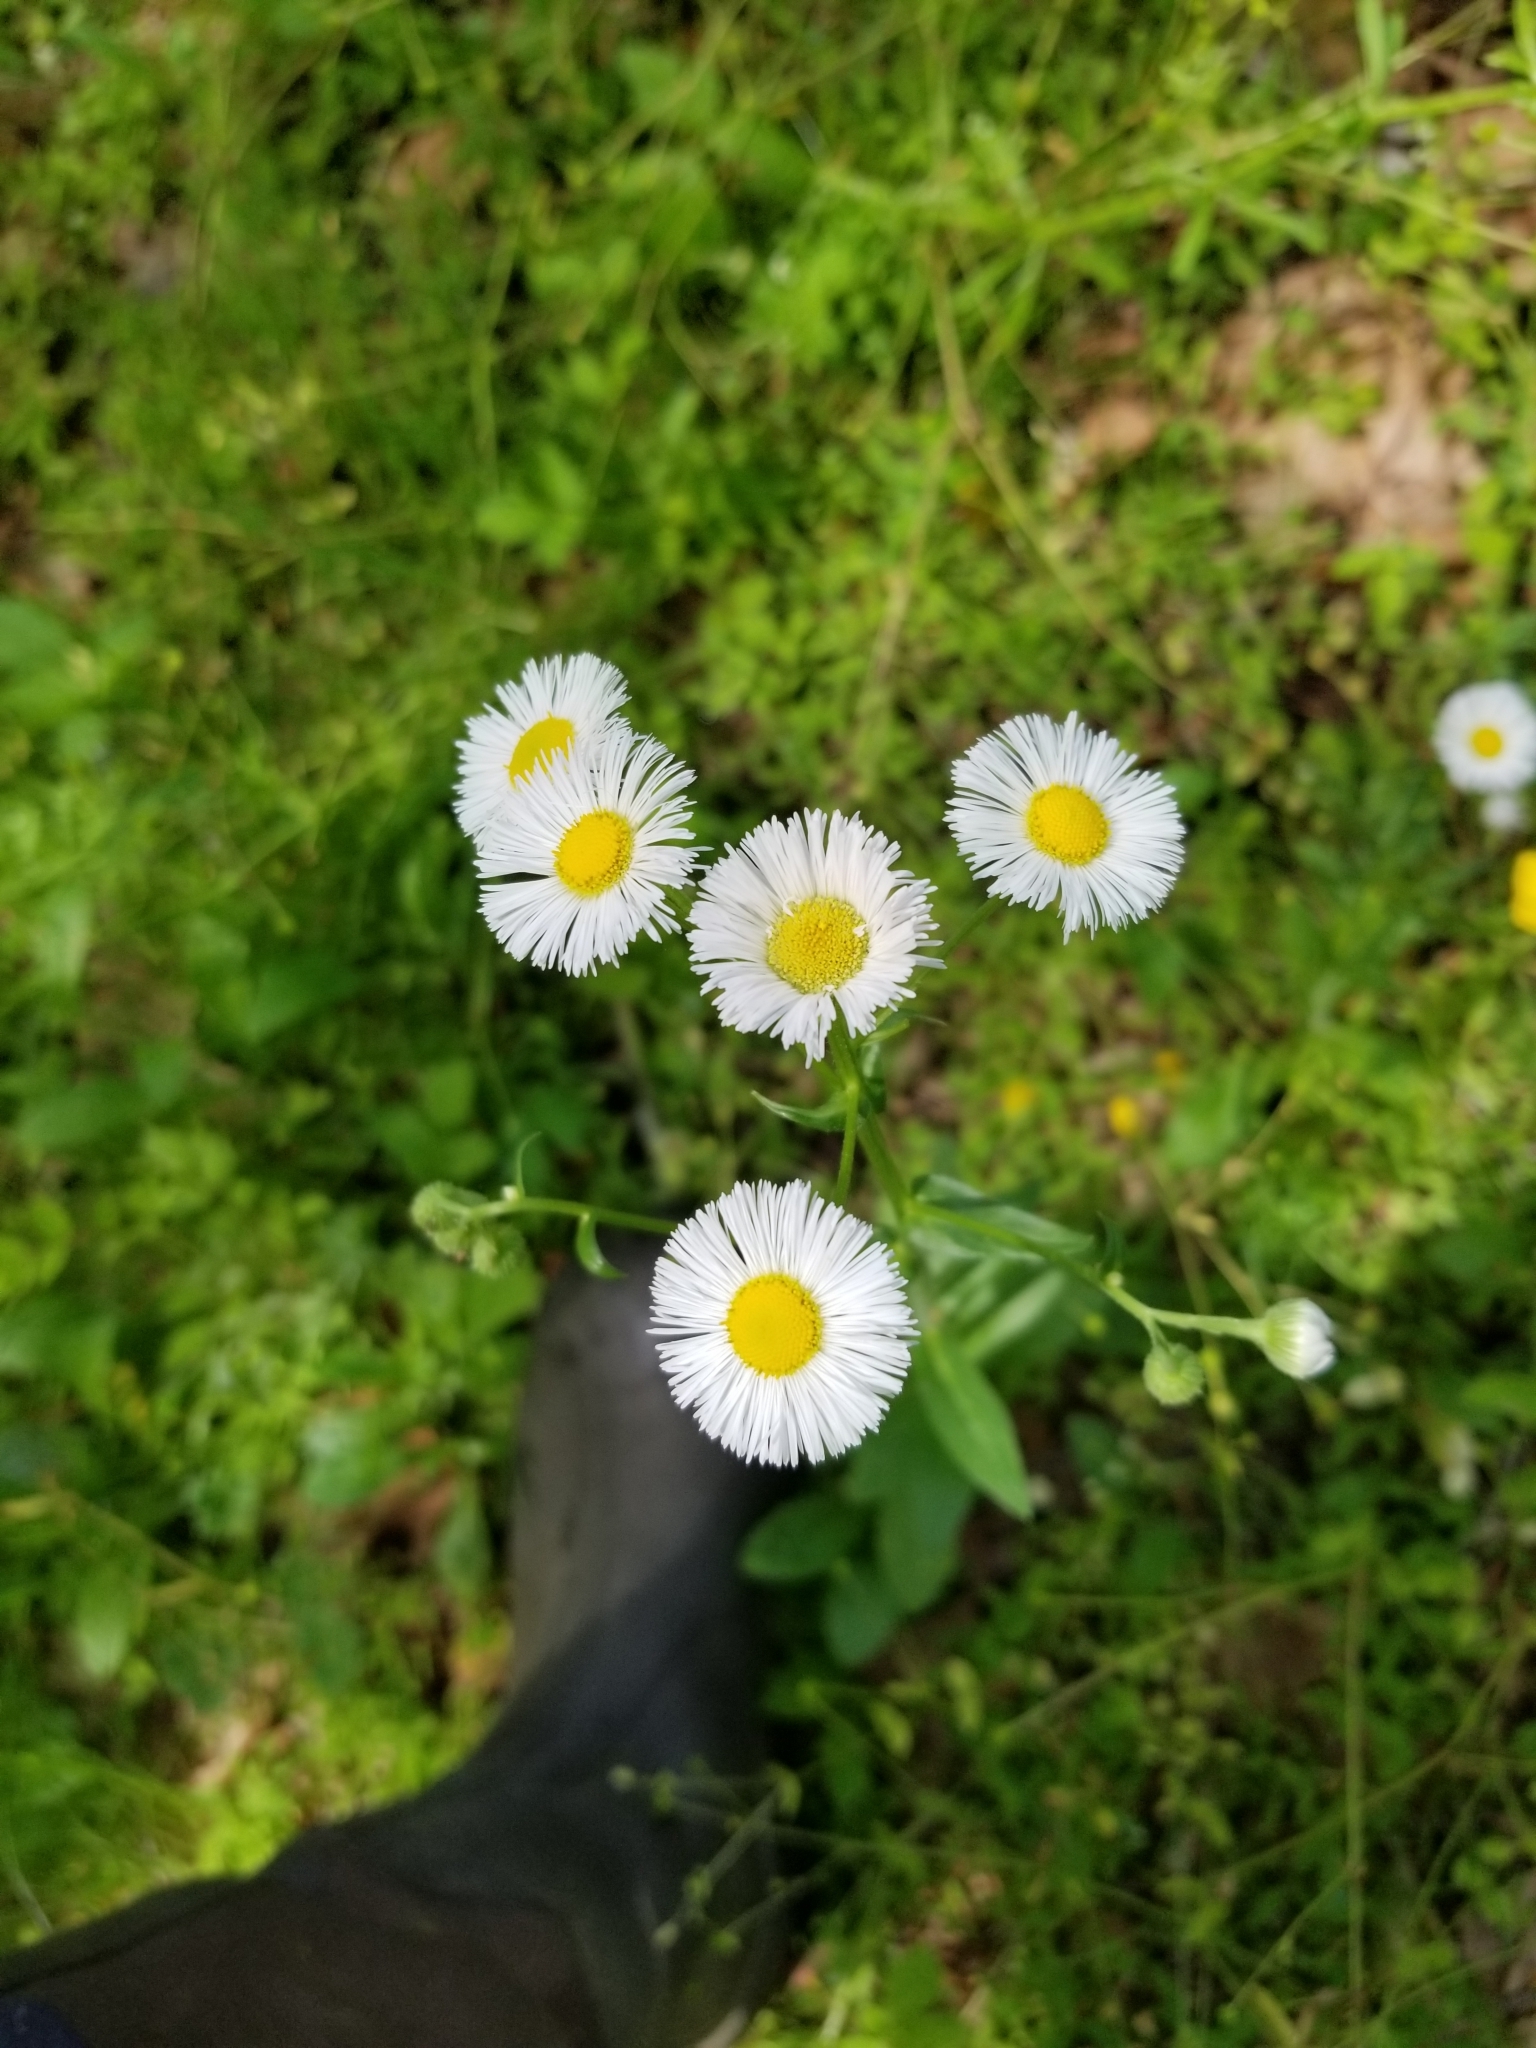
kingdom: Plantae
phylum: Tracheophyta
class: Magnoliopsida
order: Asterales
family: Asteraceae
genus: Erigeron
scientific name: Erigeron philadelphicus
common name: Robin's-plantain
